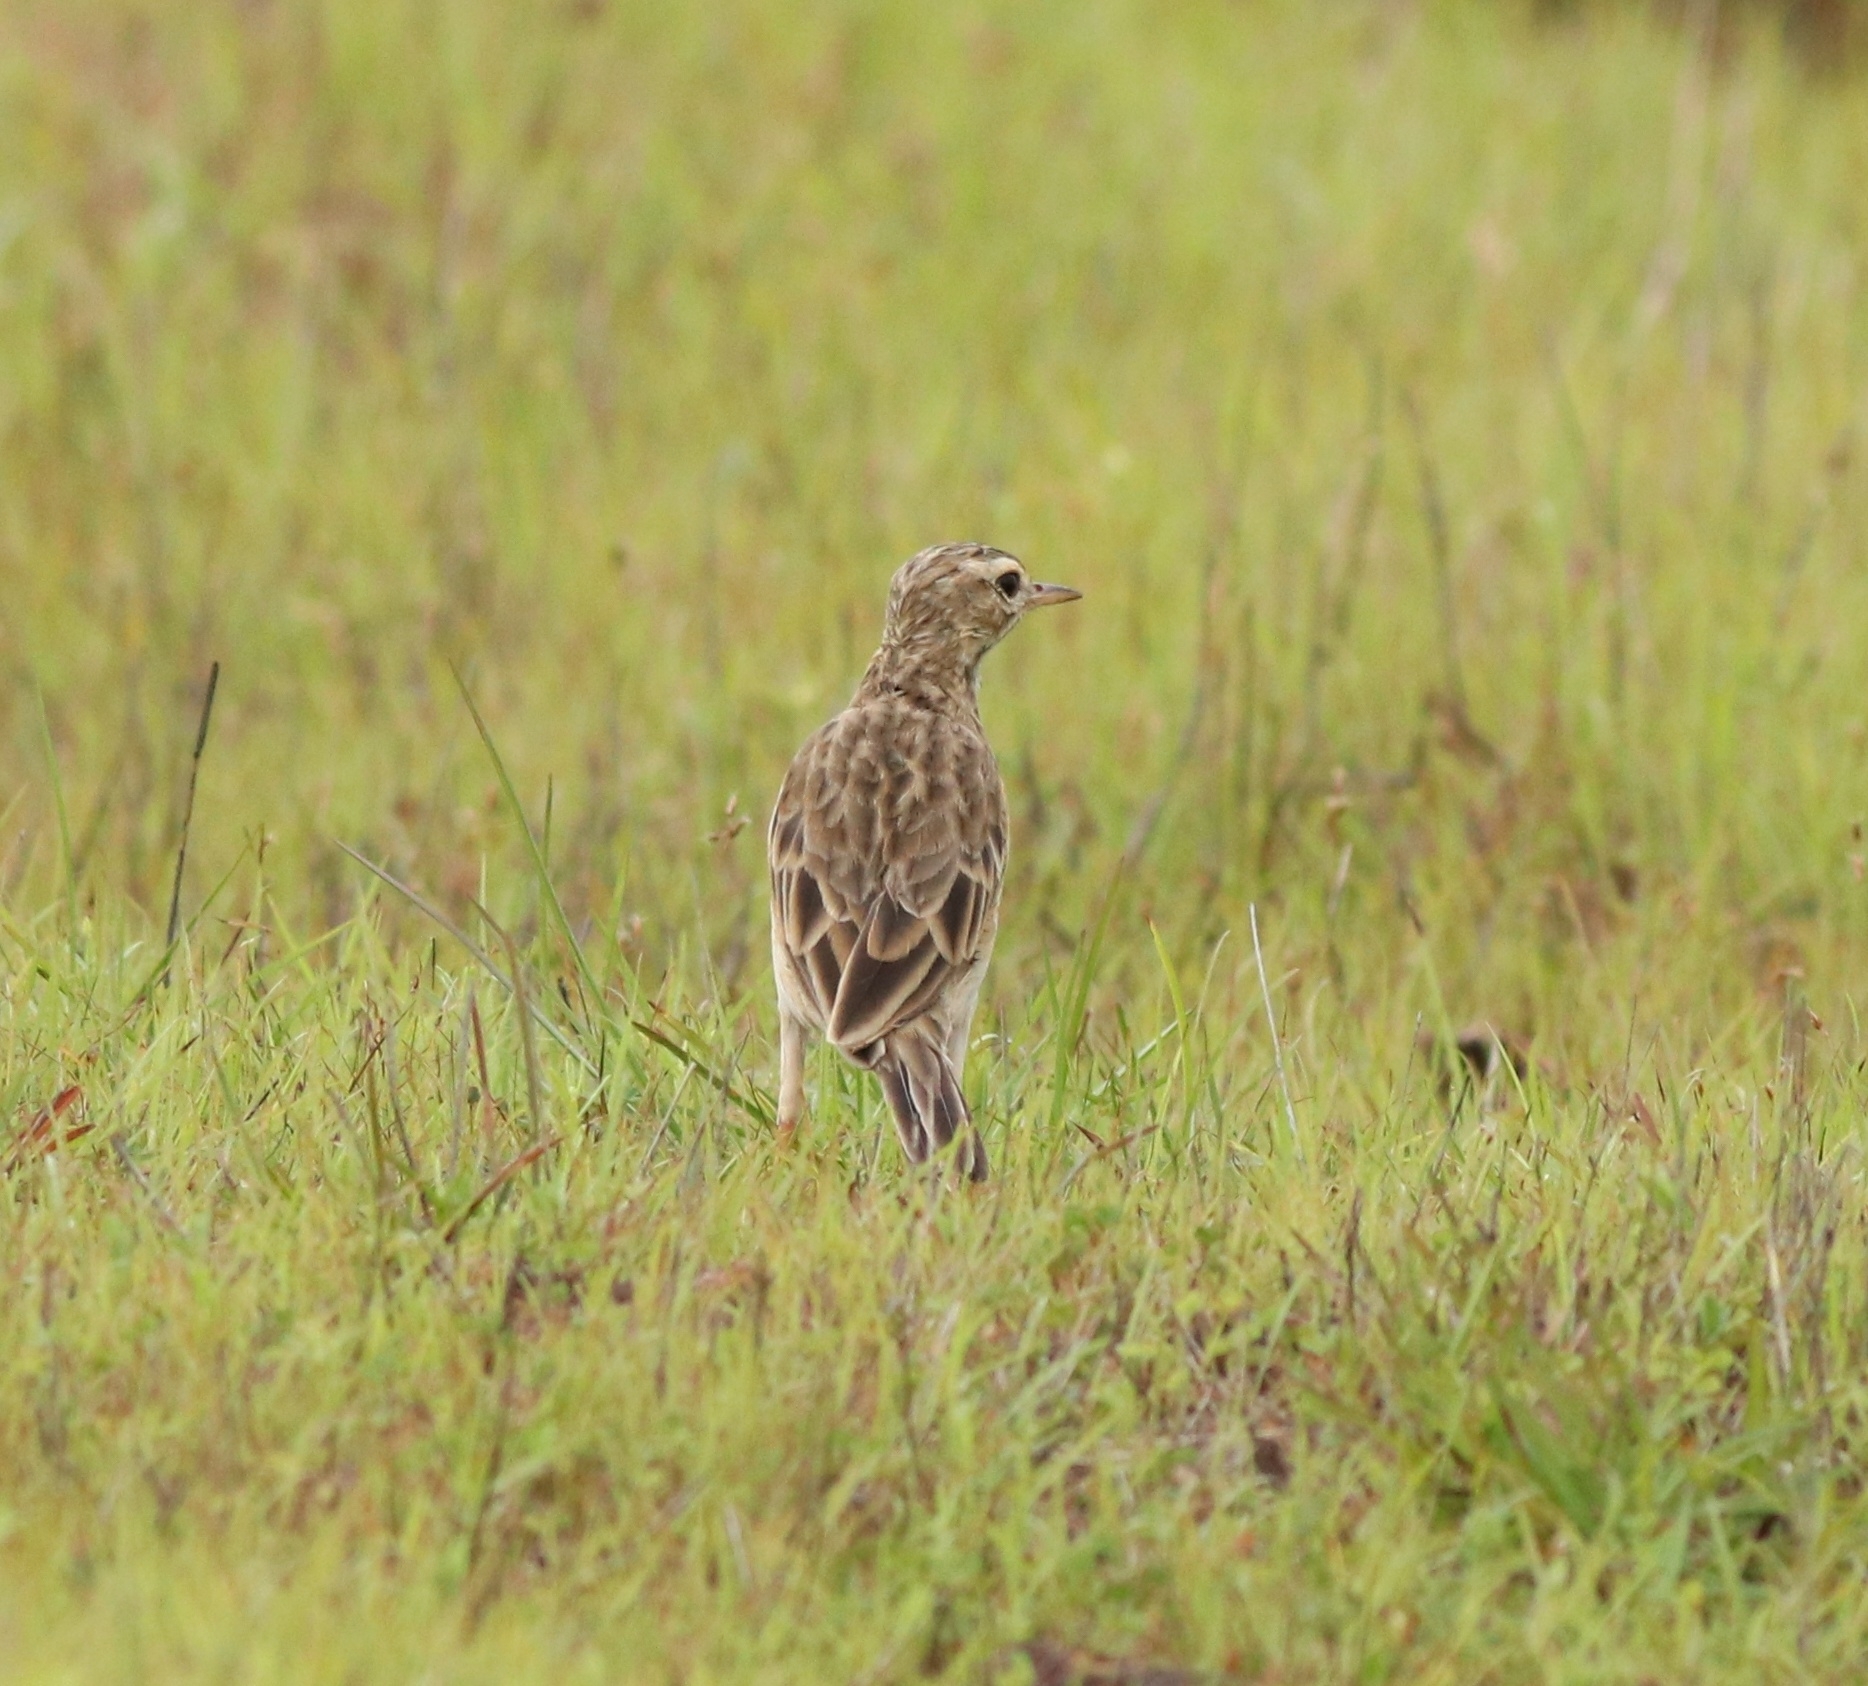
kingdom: Animalia
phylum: Chordata
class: Aves
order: Passeriformes
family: Motacillidae
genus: Anthus
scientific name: Anthus rufulus
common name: Paddyfield pipit
